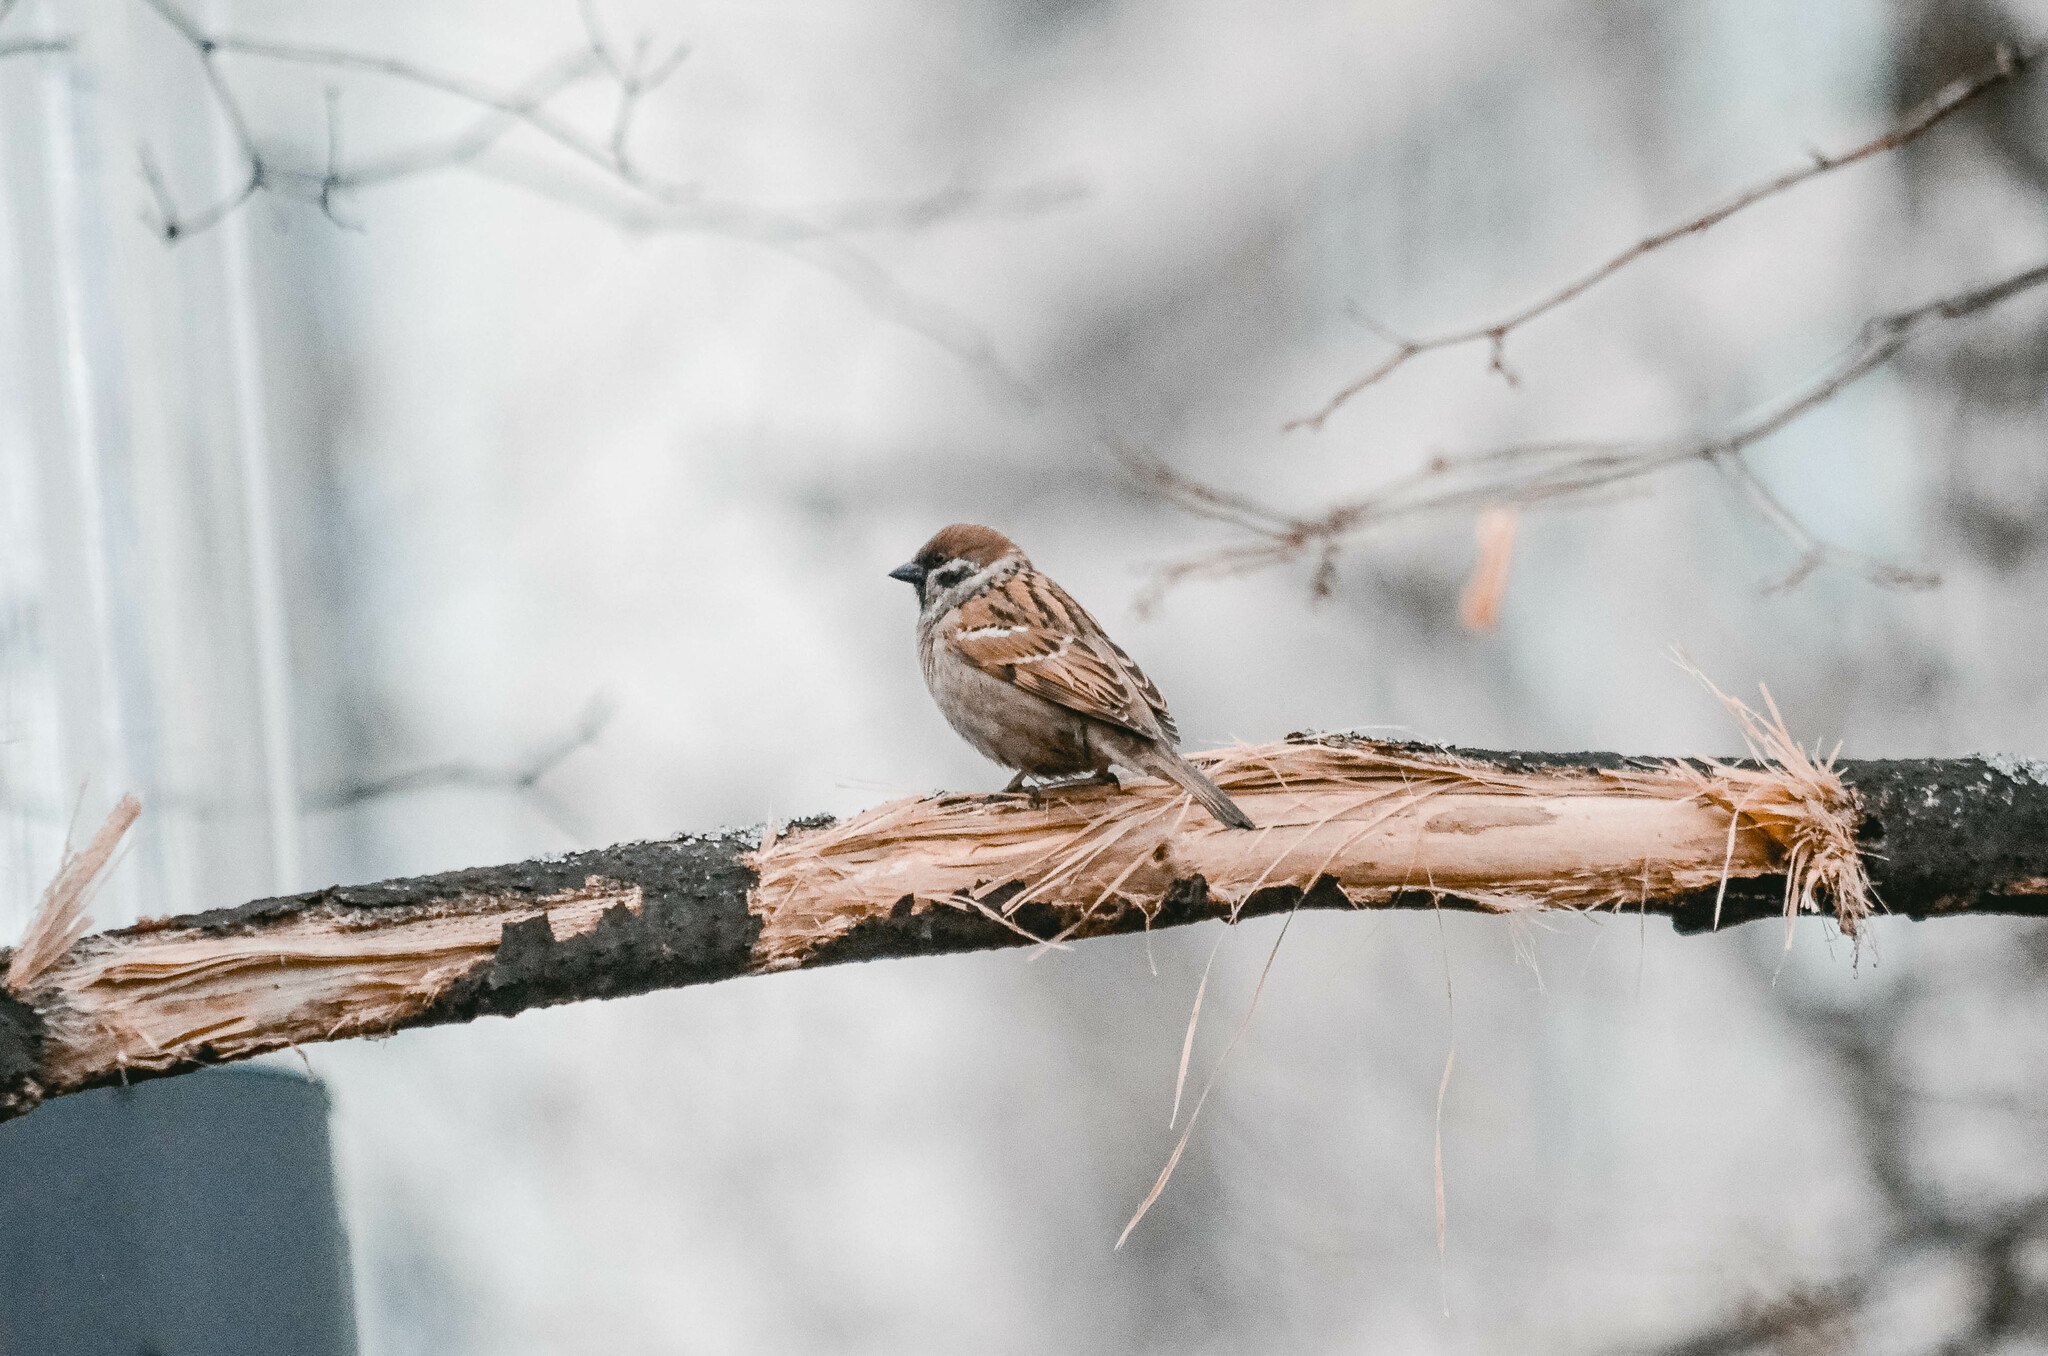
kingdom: Animalia
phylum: Chordata
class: Aves
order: Passeriformes
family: Passeridae
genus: Passer
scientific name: Passer montanus
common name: Eurasian tree sparrow
